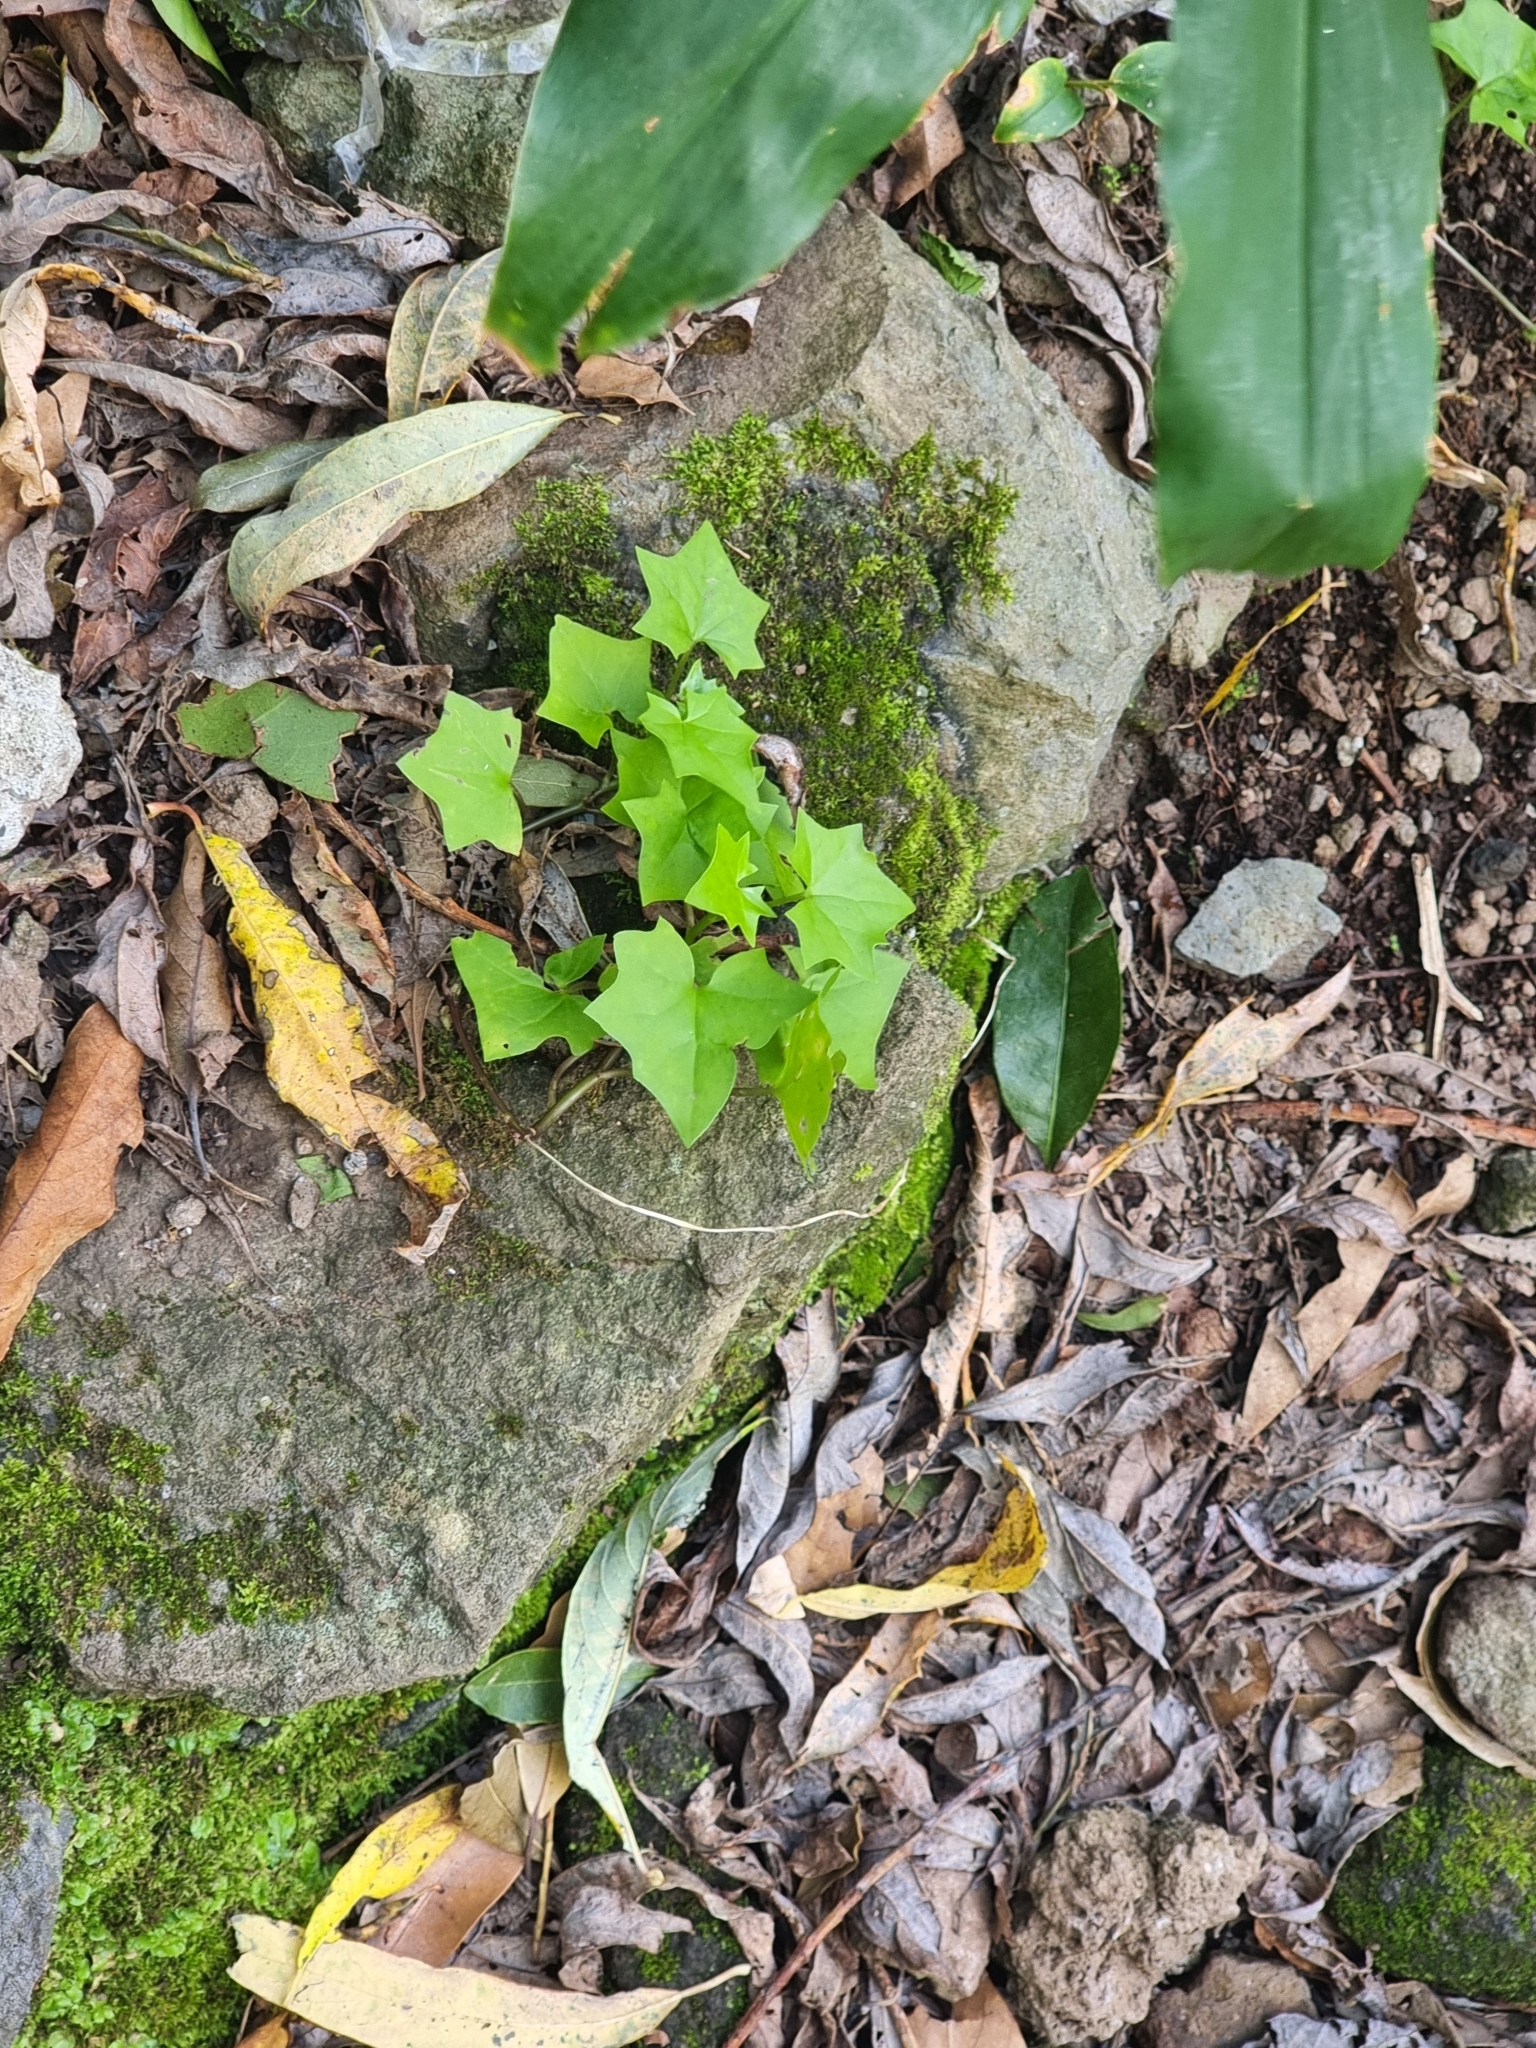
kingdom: Plantae
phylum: Tracheophyta
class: Magnoliopsida
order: Asterales
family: Asteraceae
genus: Delairea
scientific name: Delairea odorata
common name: Cape-ivy
